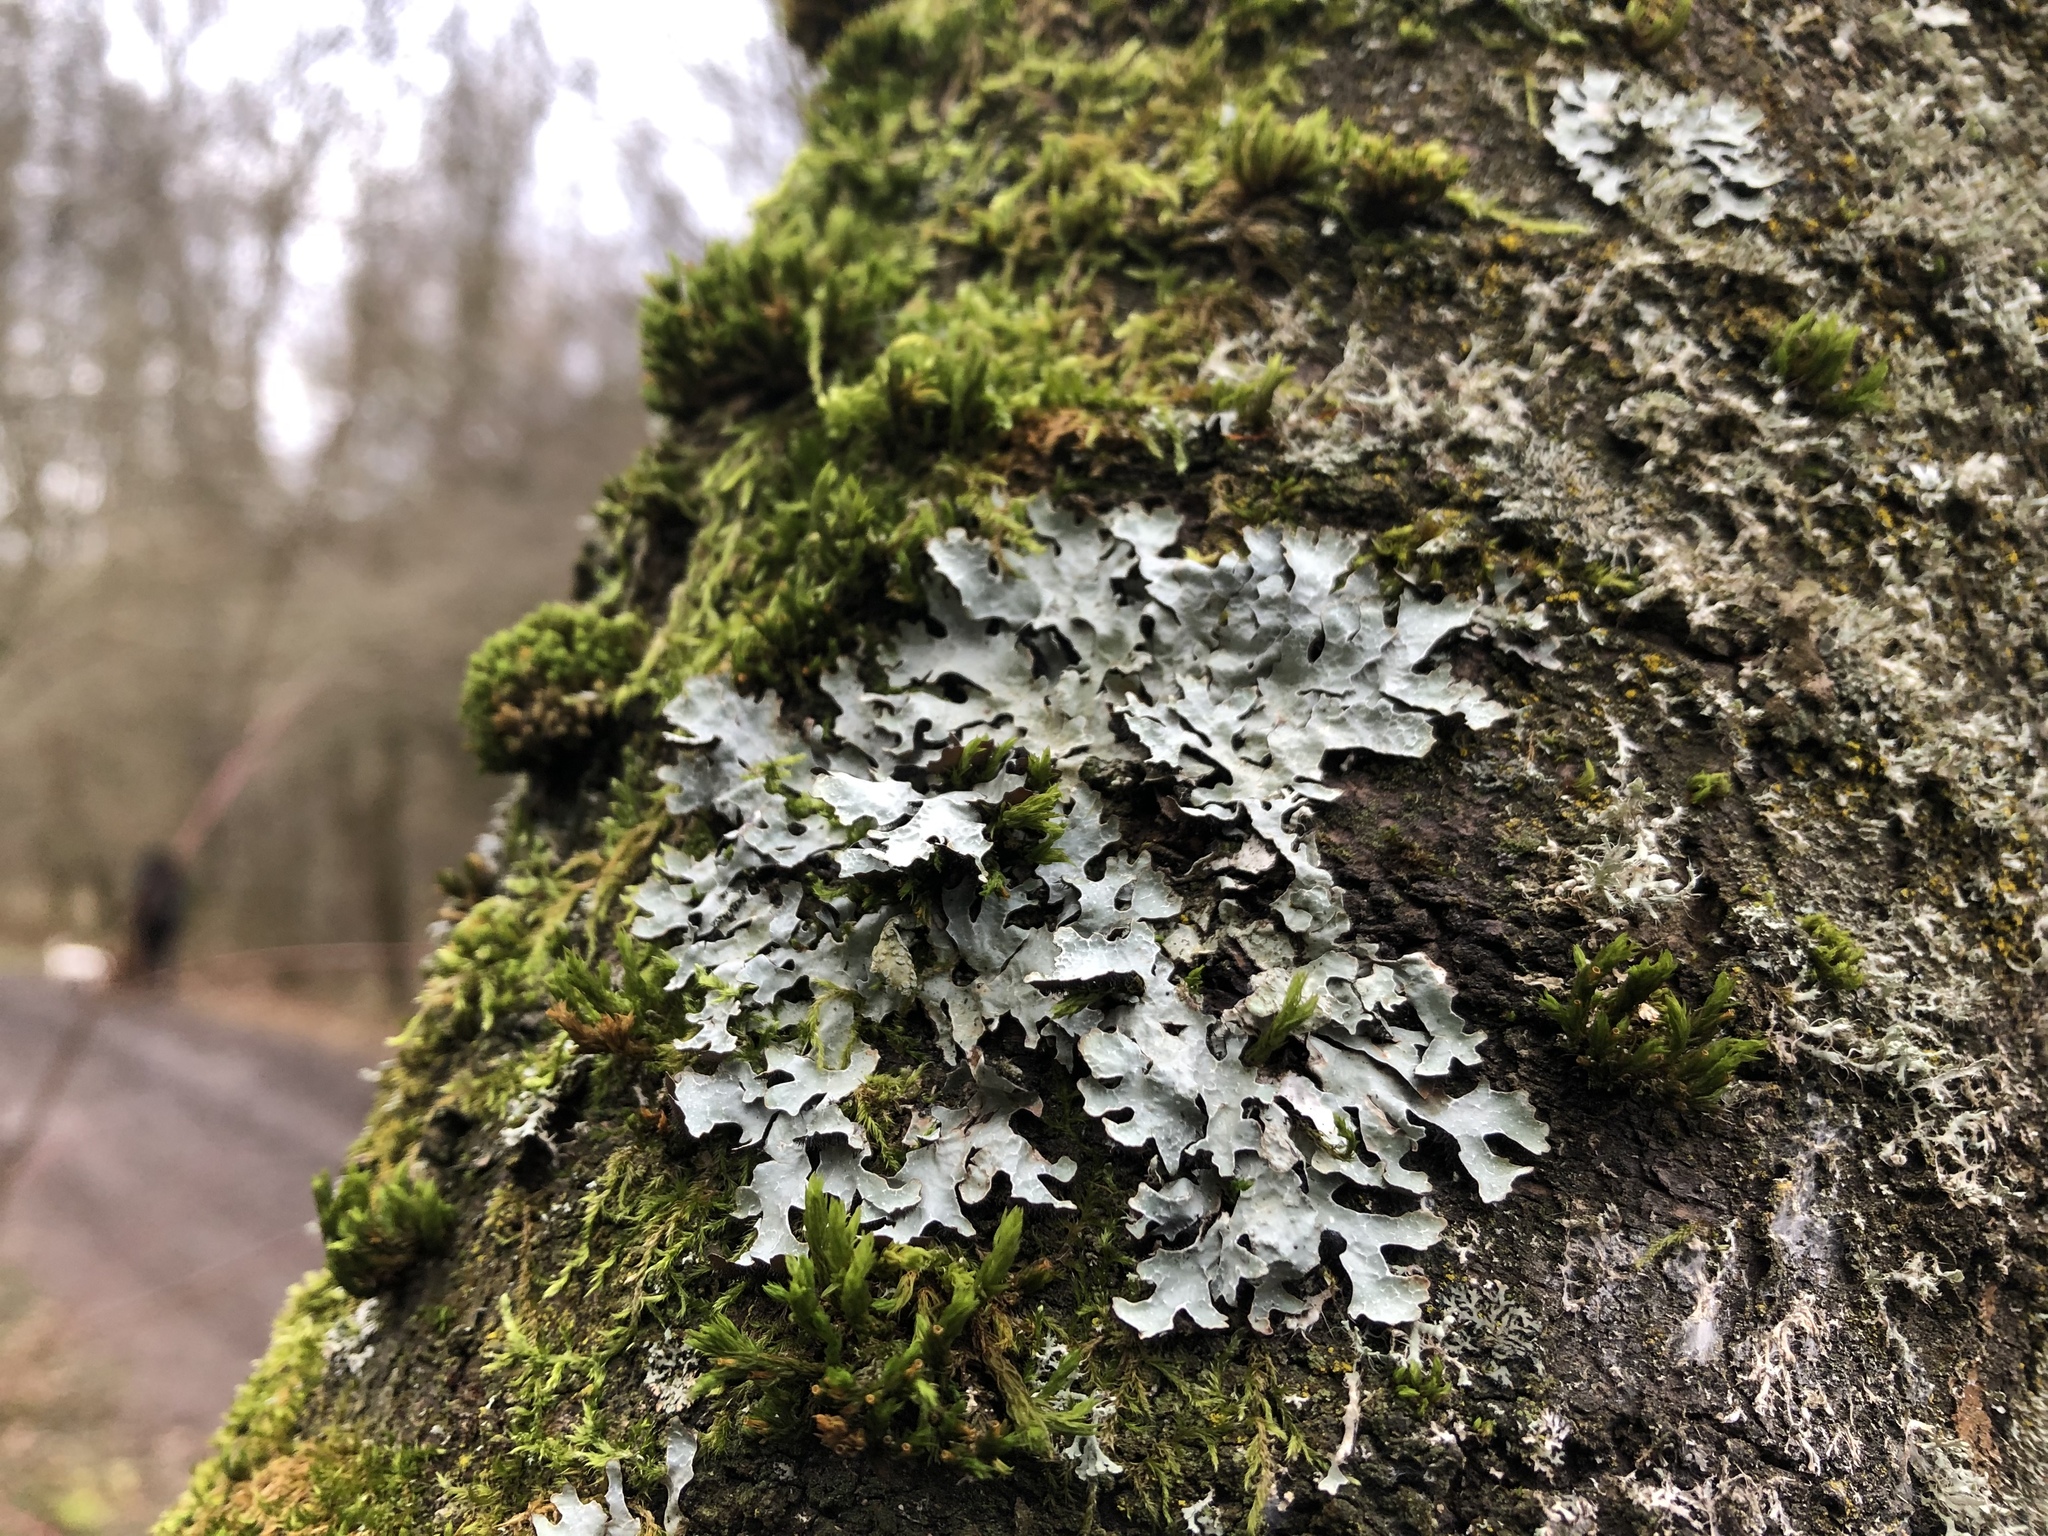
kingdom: Fungi
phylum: Ascomycota
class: Lecanoromycetes
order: Lecanorales
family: Parmeliaceae
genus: Parmelia
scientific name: Parmelia sulcata
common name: Netted shield lichen
